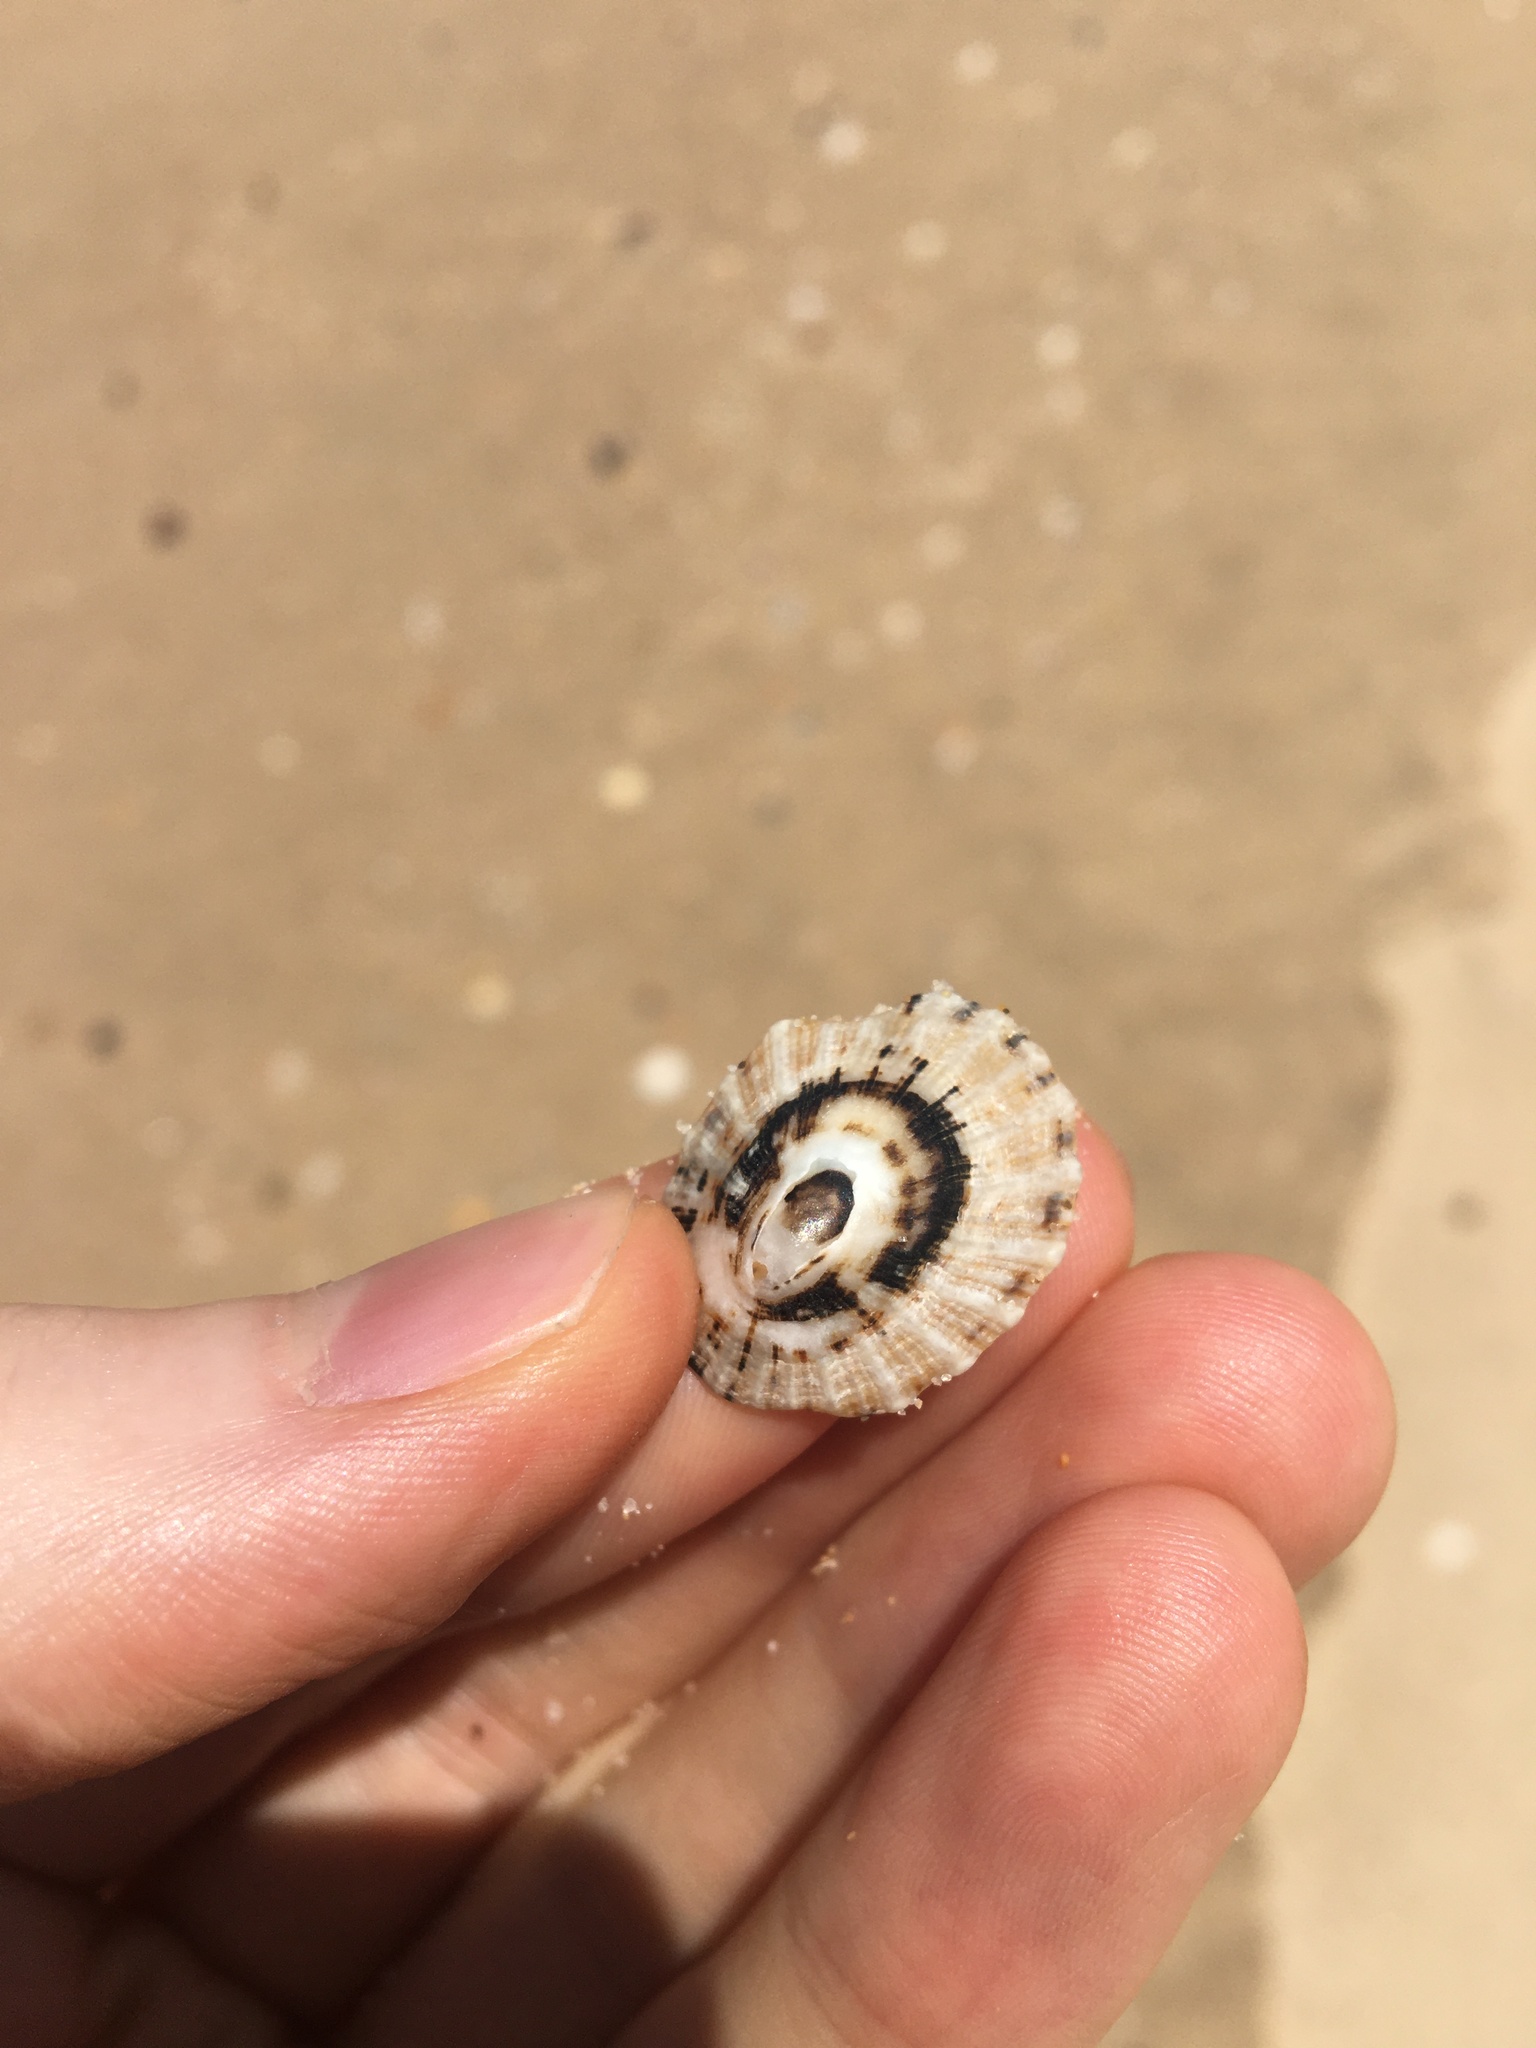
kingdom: Animalia
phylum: Mollusca
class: Gastropoda
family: Patellidae
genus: Scutellastra
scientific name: Scutellastra peronii
